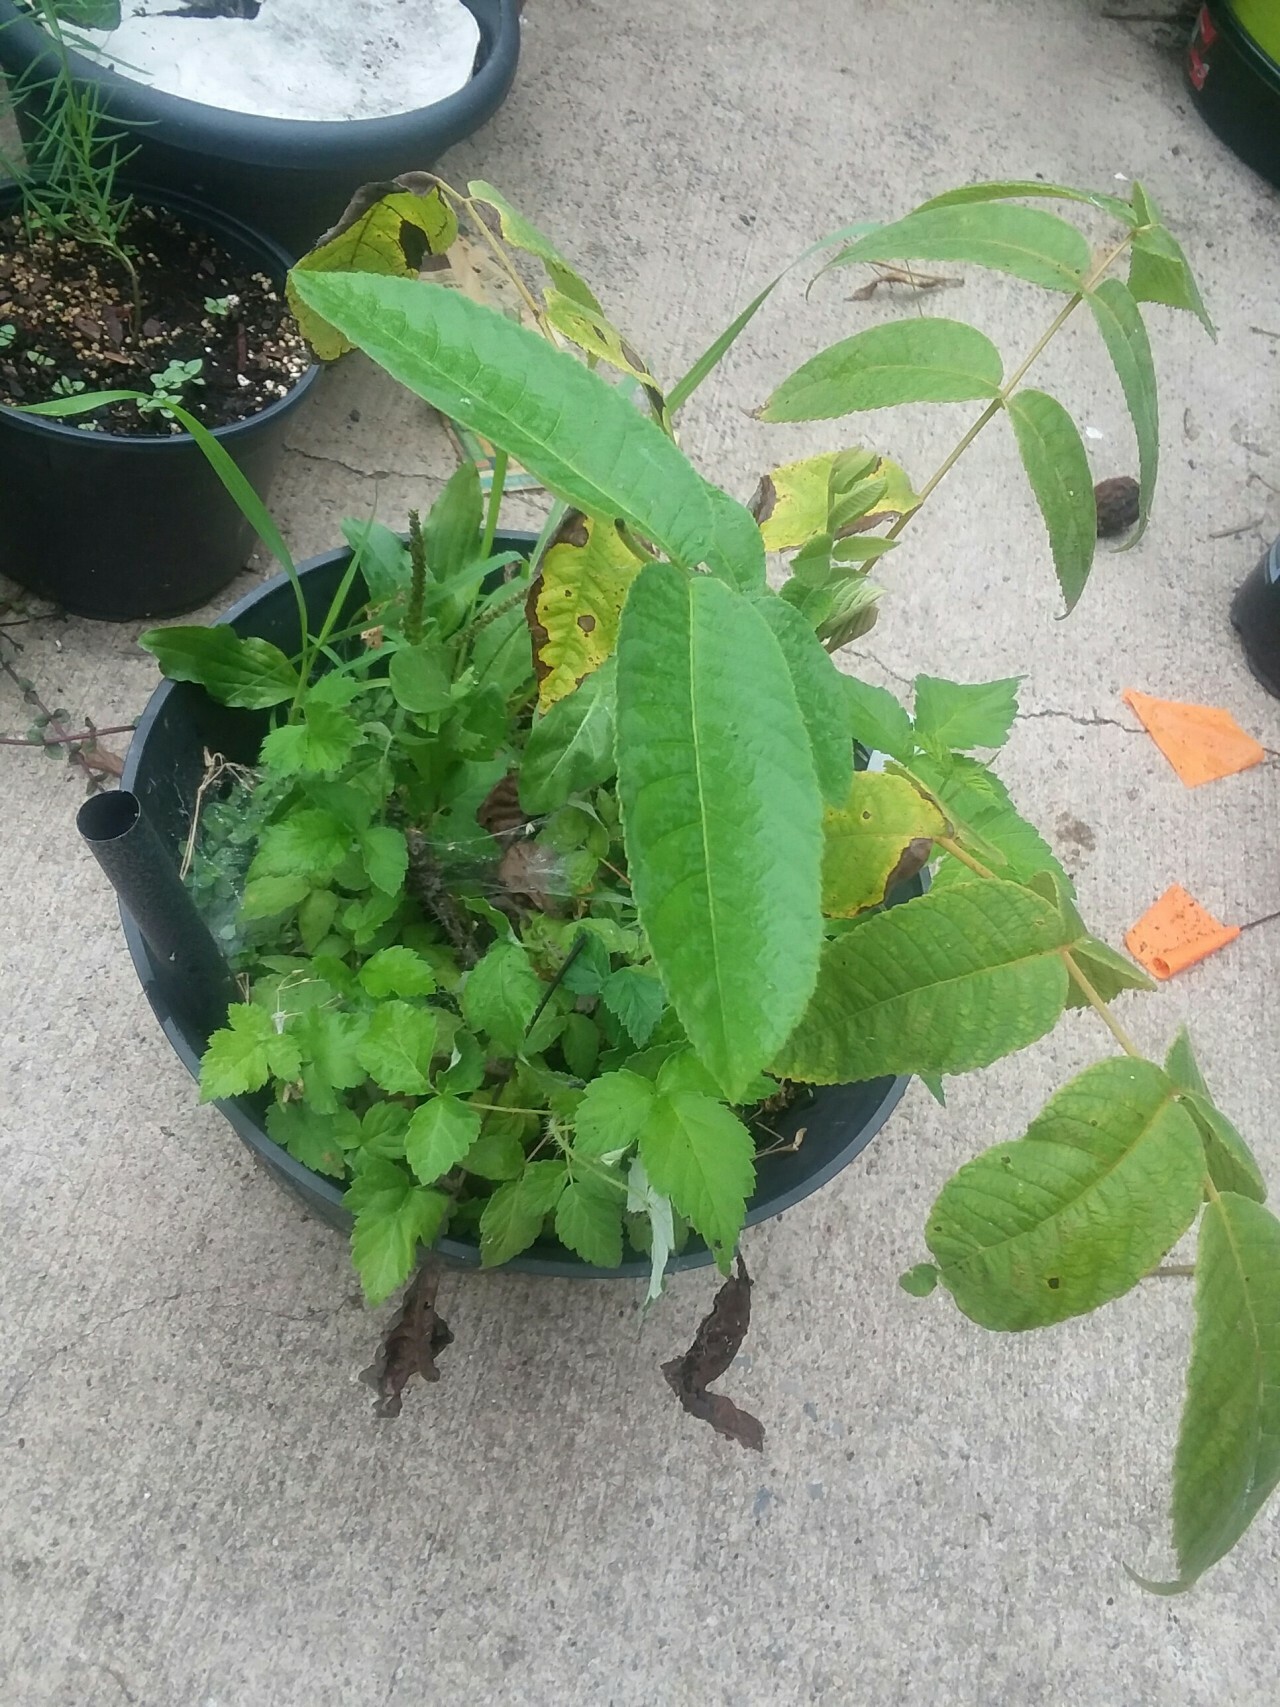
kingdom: Plantae
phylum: Tracheophyta
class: Magnoliopsida
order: Fagales
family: Juglandaceae
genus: Juglans
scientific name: Juglans cinerea
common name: Butternut
